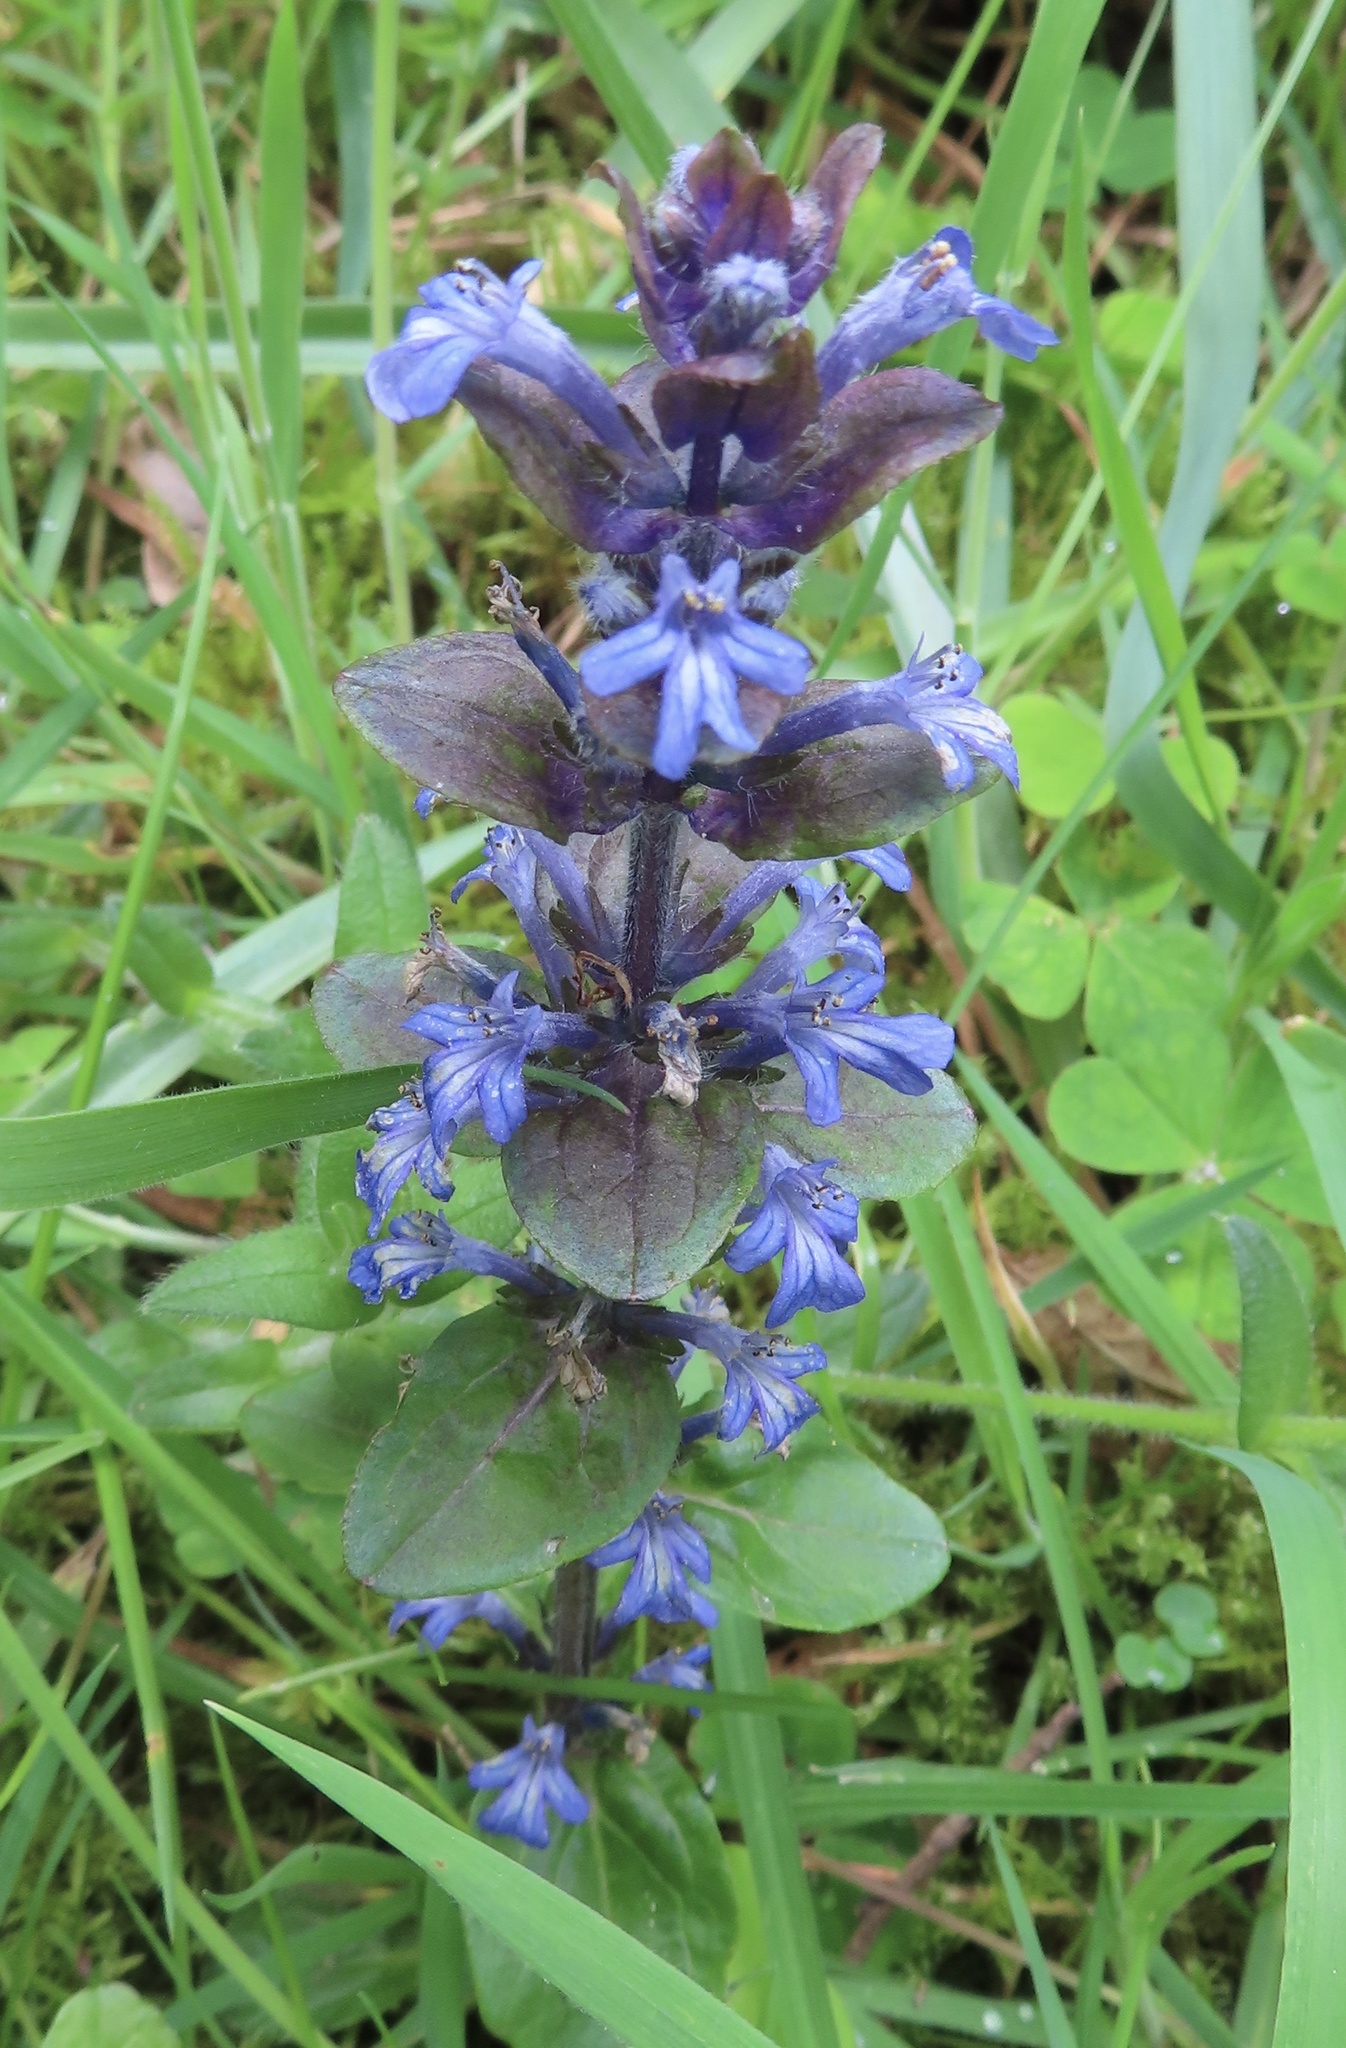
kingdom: Plantae
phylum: Tracheophyta
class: Magnoliopsida
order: Lamiales
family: Lamiaceae
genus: Ajuga
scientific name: Ajuga reptans
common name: Bugle
